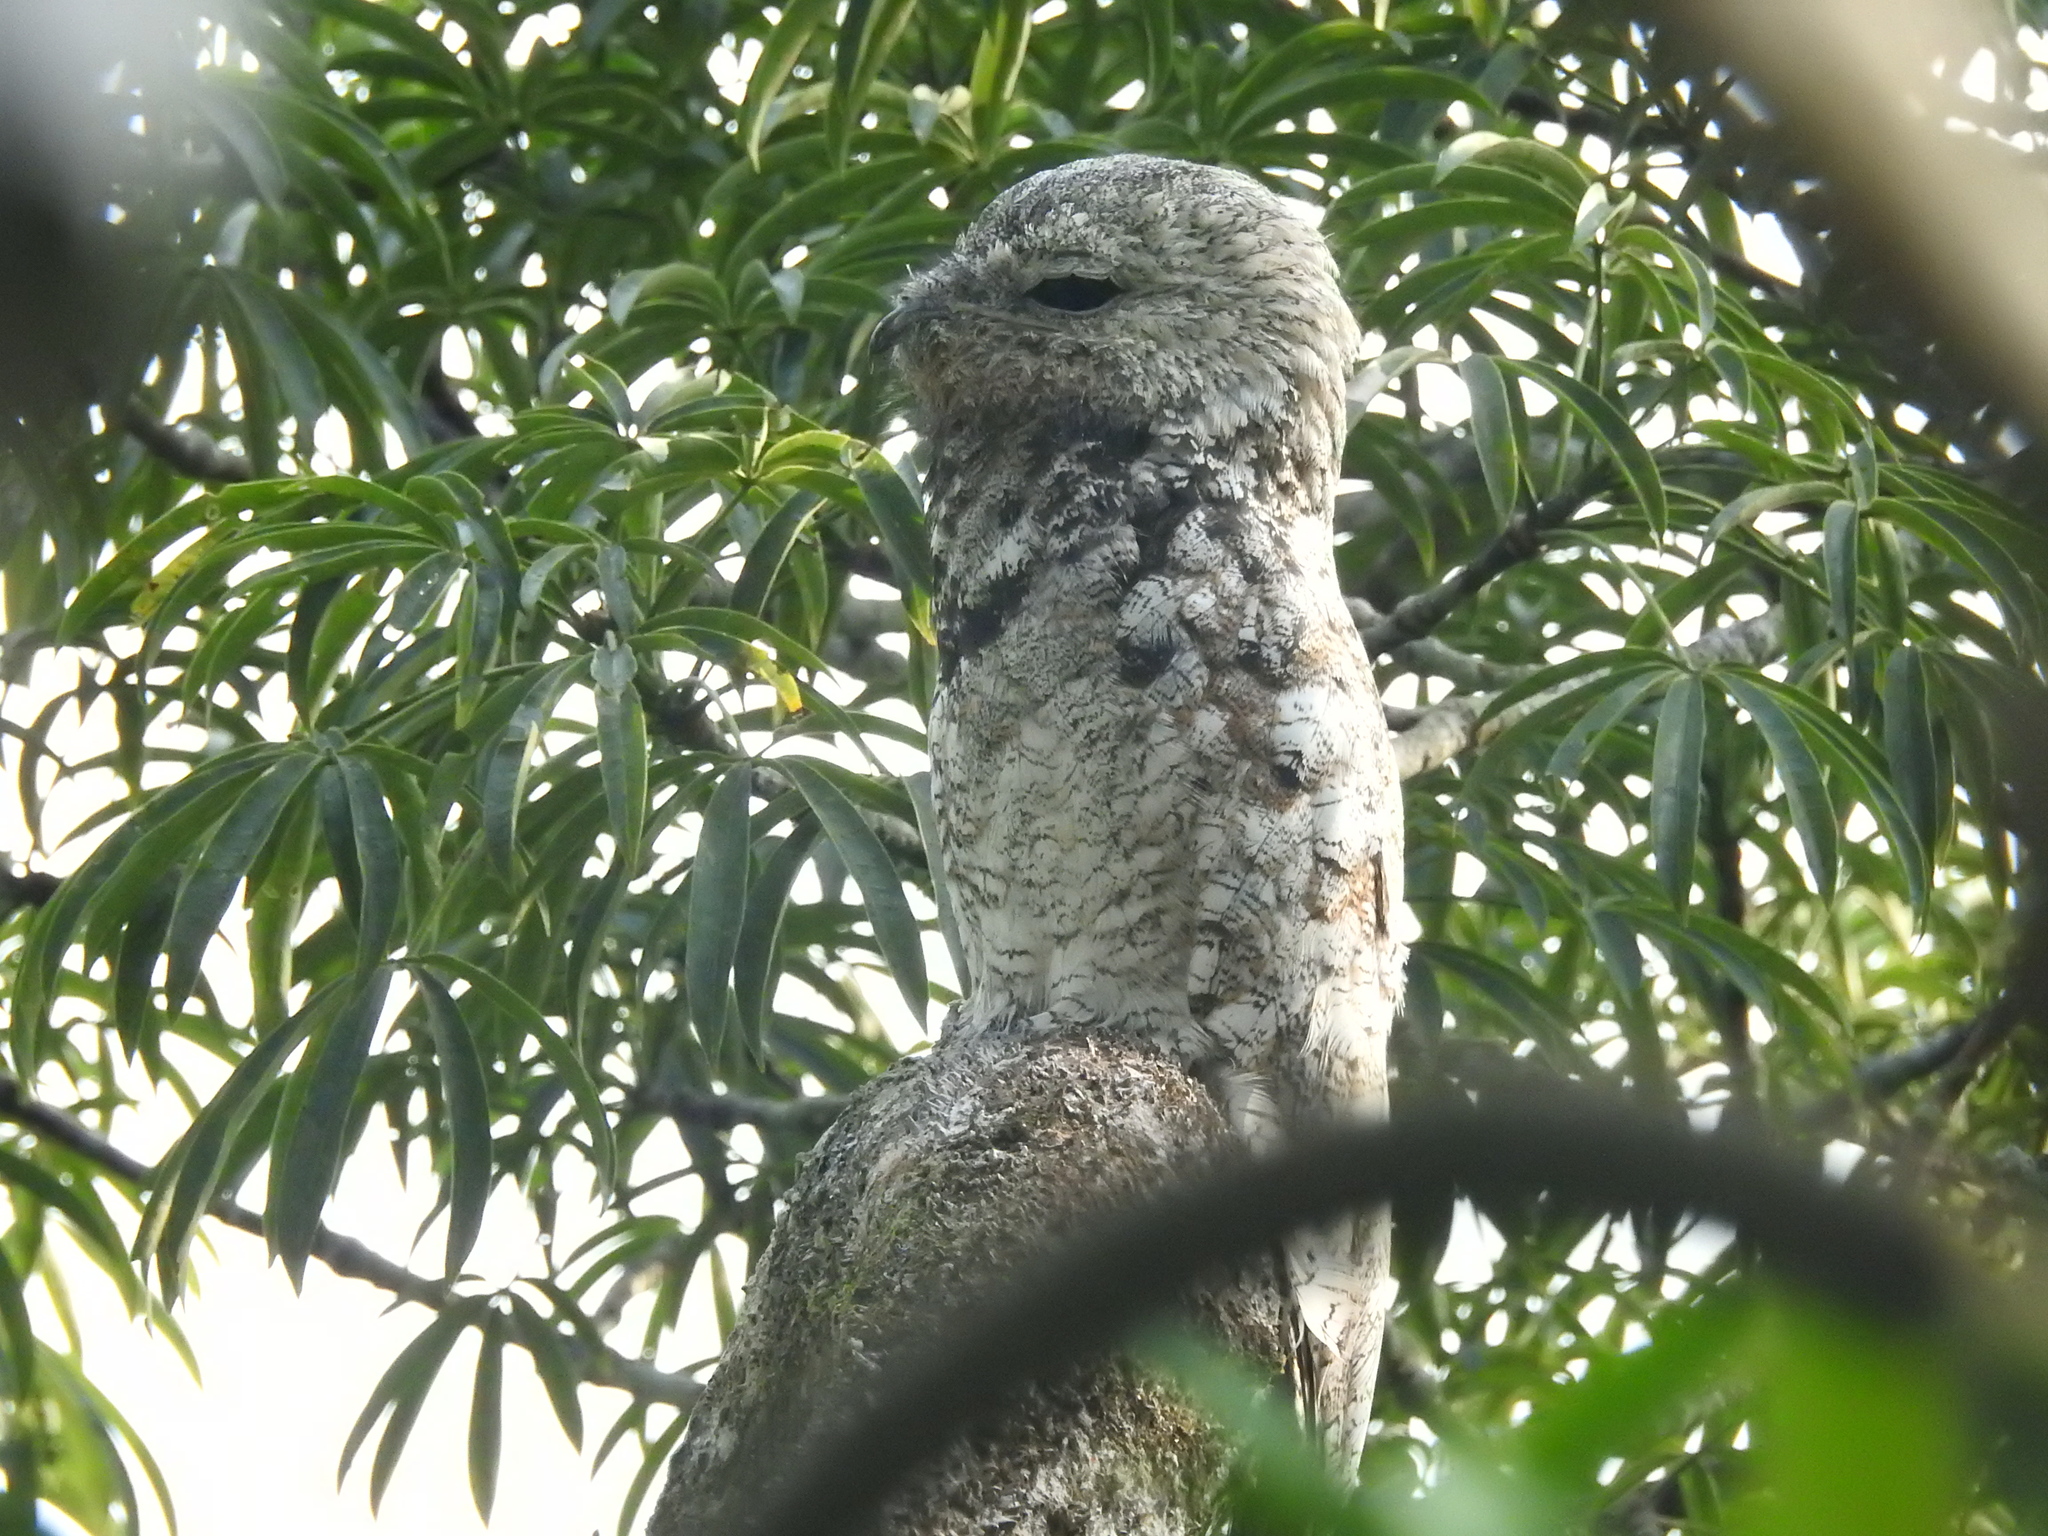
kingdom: Animalia
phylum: Chordata
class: Aves
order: Nyctibiiformes
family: Nyctibiidae
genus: Nyctibius
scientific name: Nyctibius grandis
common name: Great potoo
